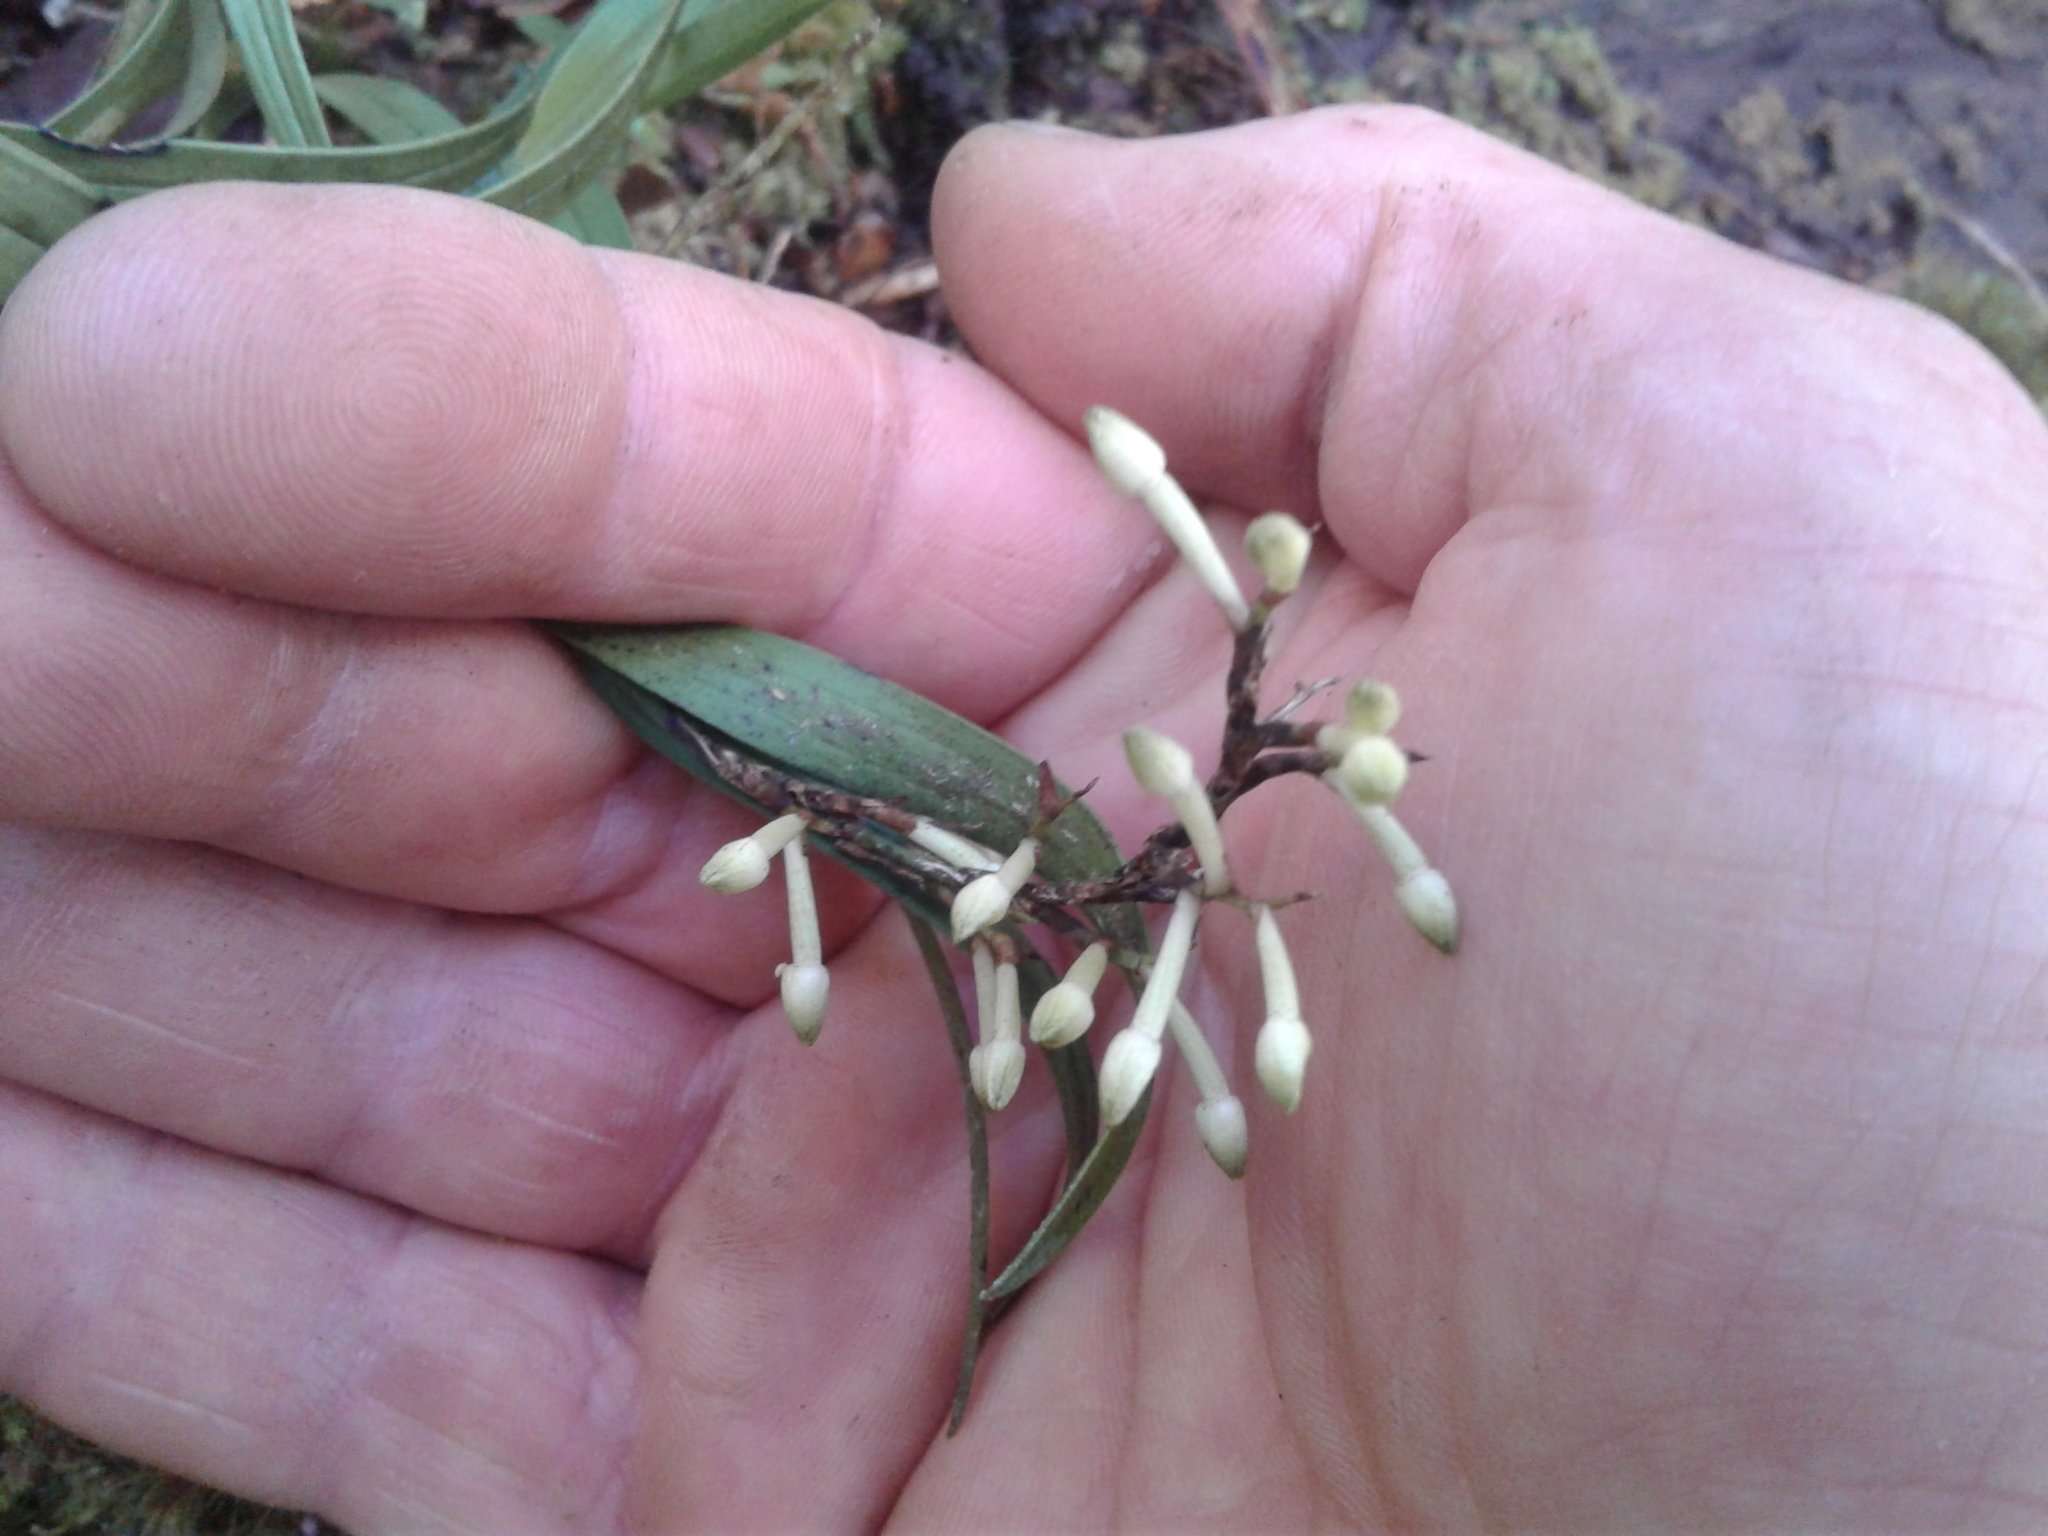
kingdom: Plantae
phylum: Tracheophyta
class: Liliopsida
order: Asparagales
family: Orchidaceae
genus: Earina
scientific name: Earina autumnalis
